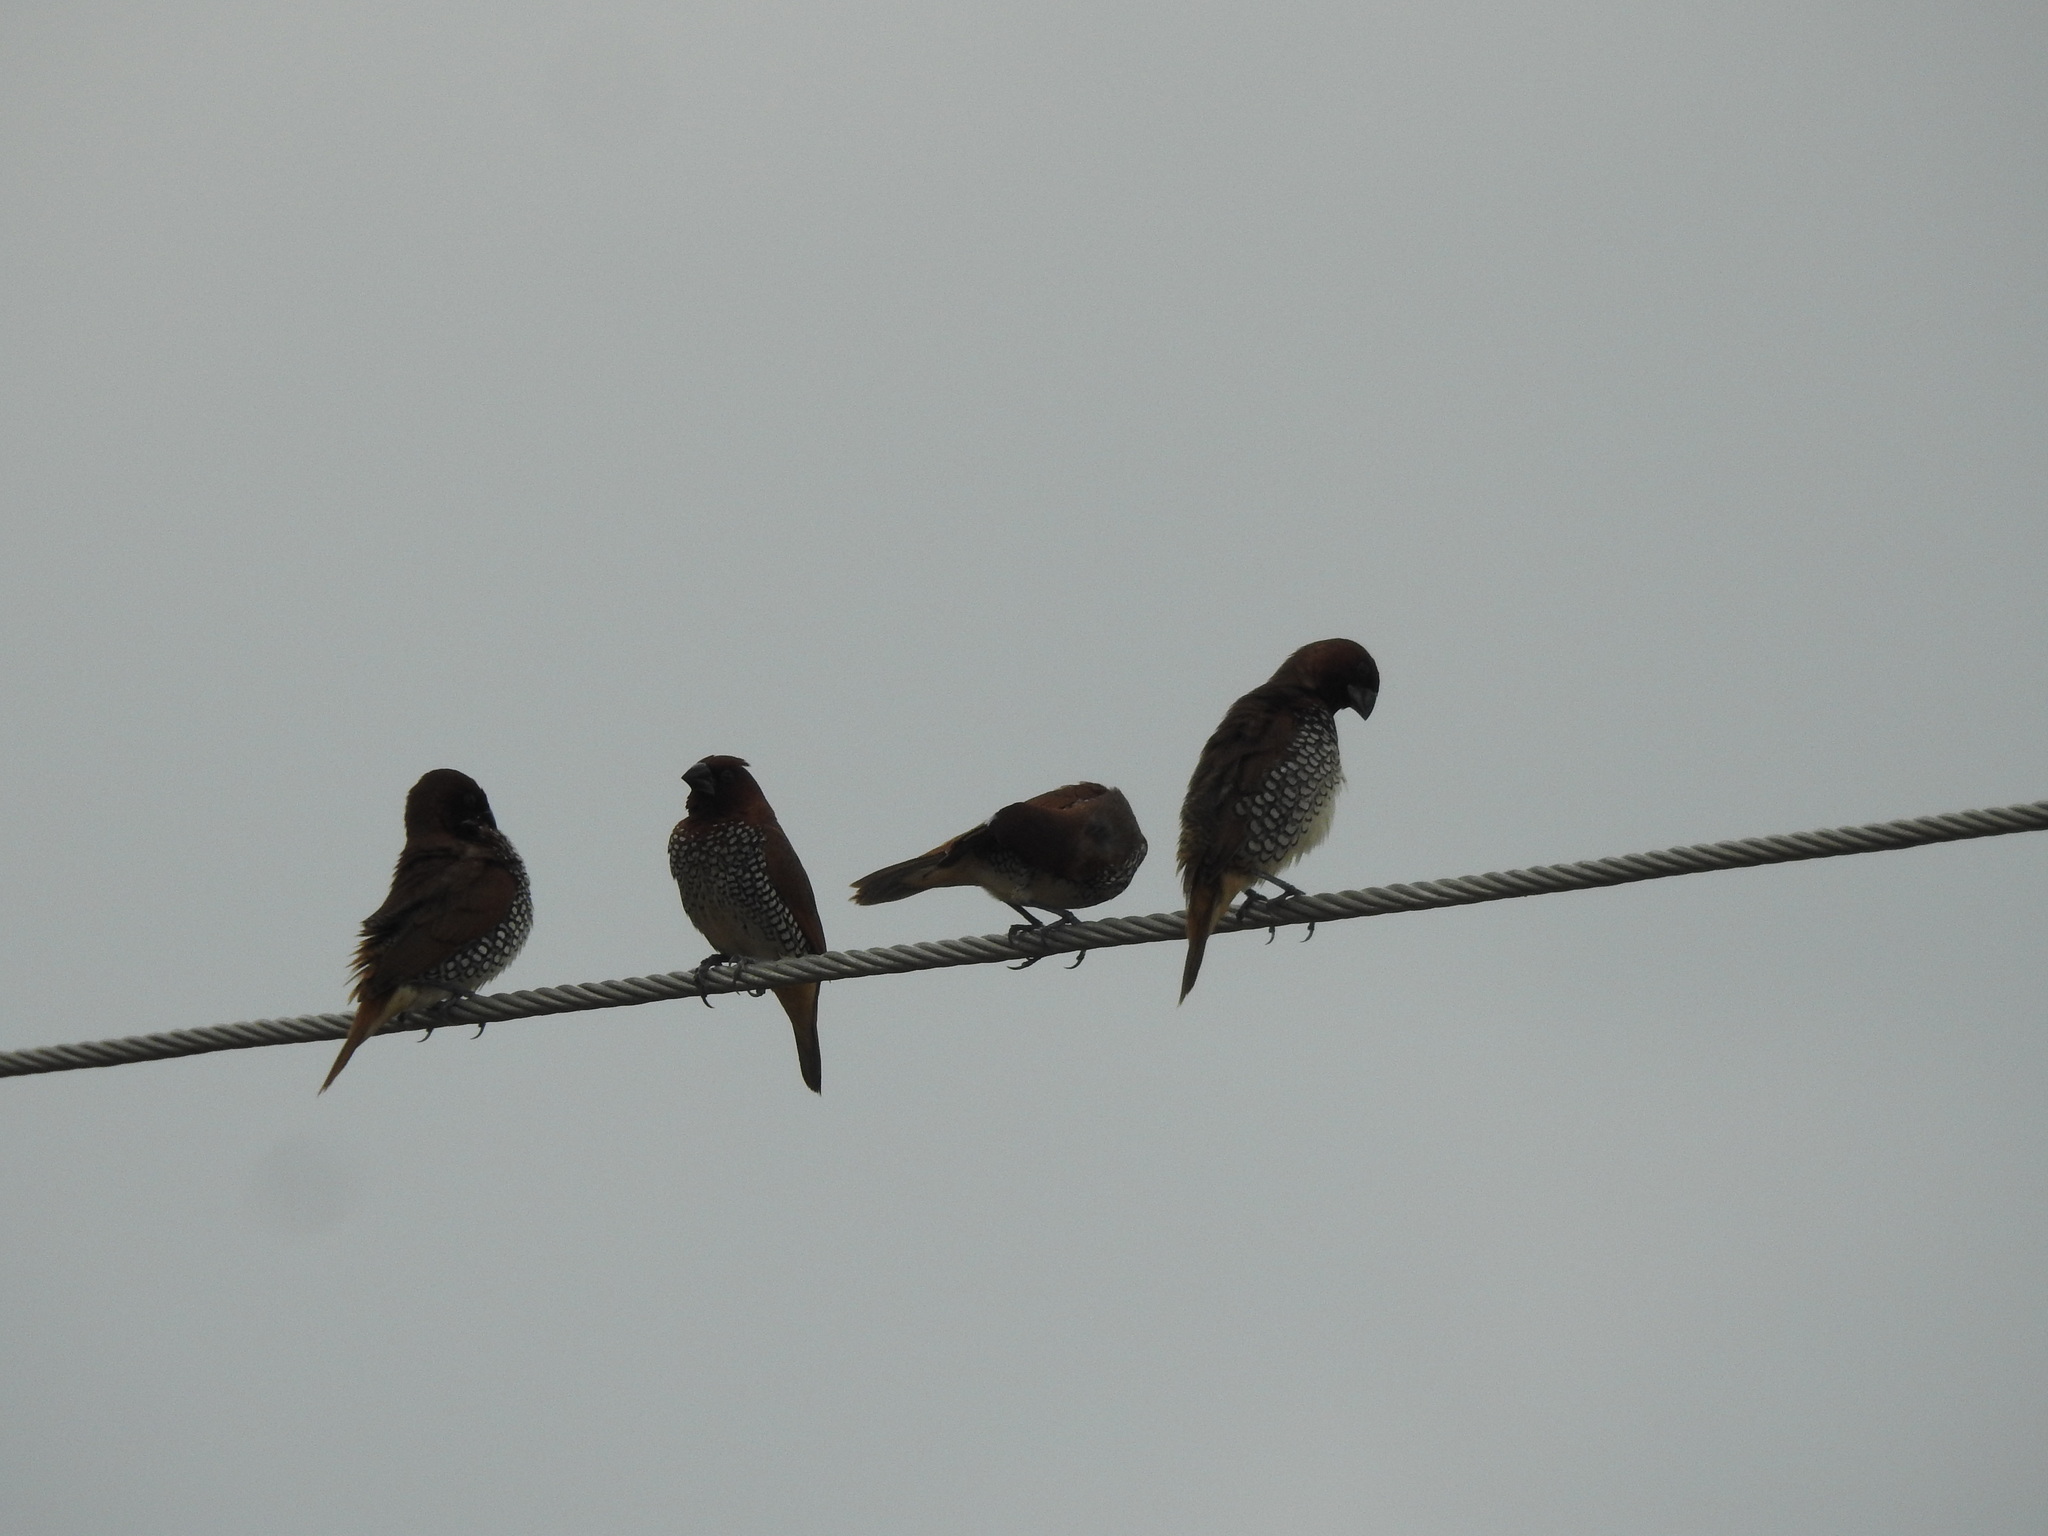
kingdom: Animalia
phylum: Chordata
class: Aves
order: Passeriformes
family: Estrildidae
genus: Lonchura
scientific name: Lonchura punctulata
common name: Scaly-breasted munia
